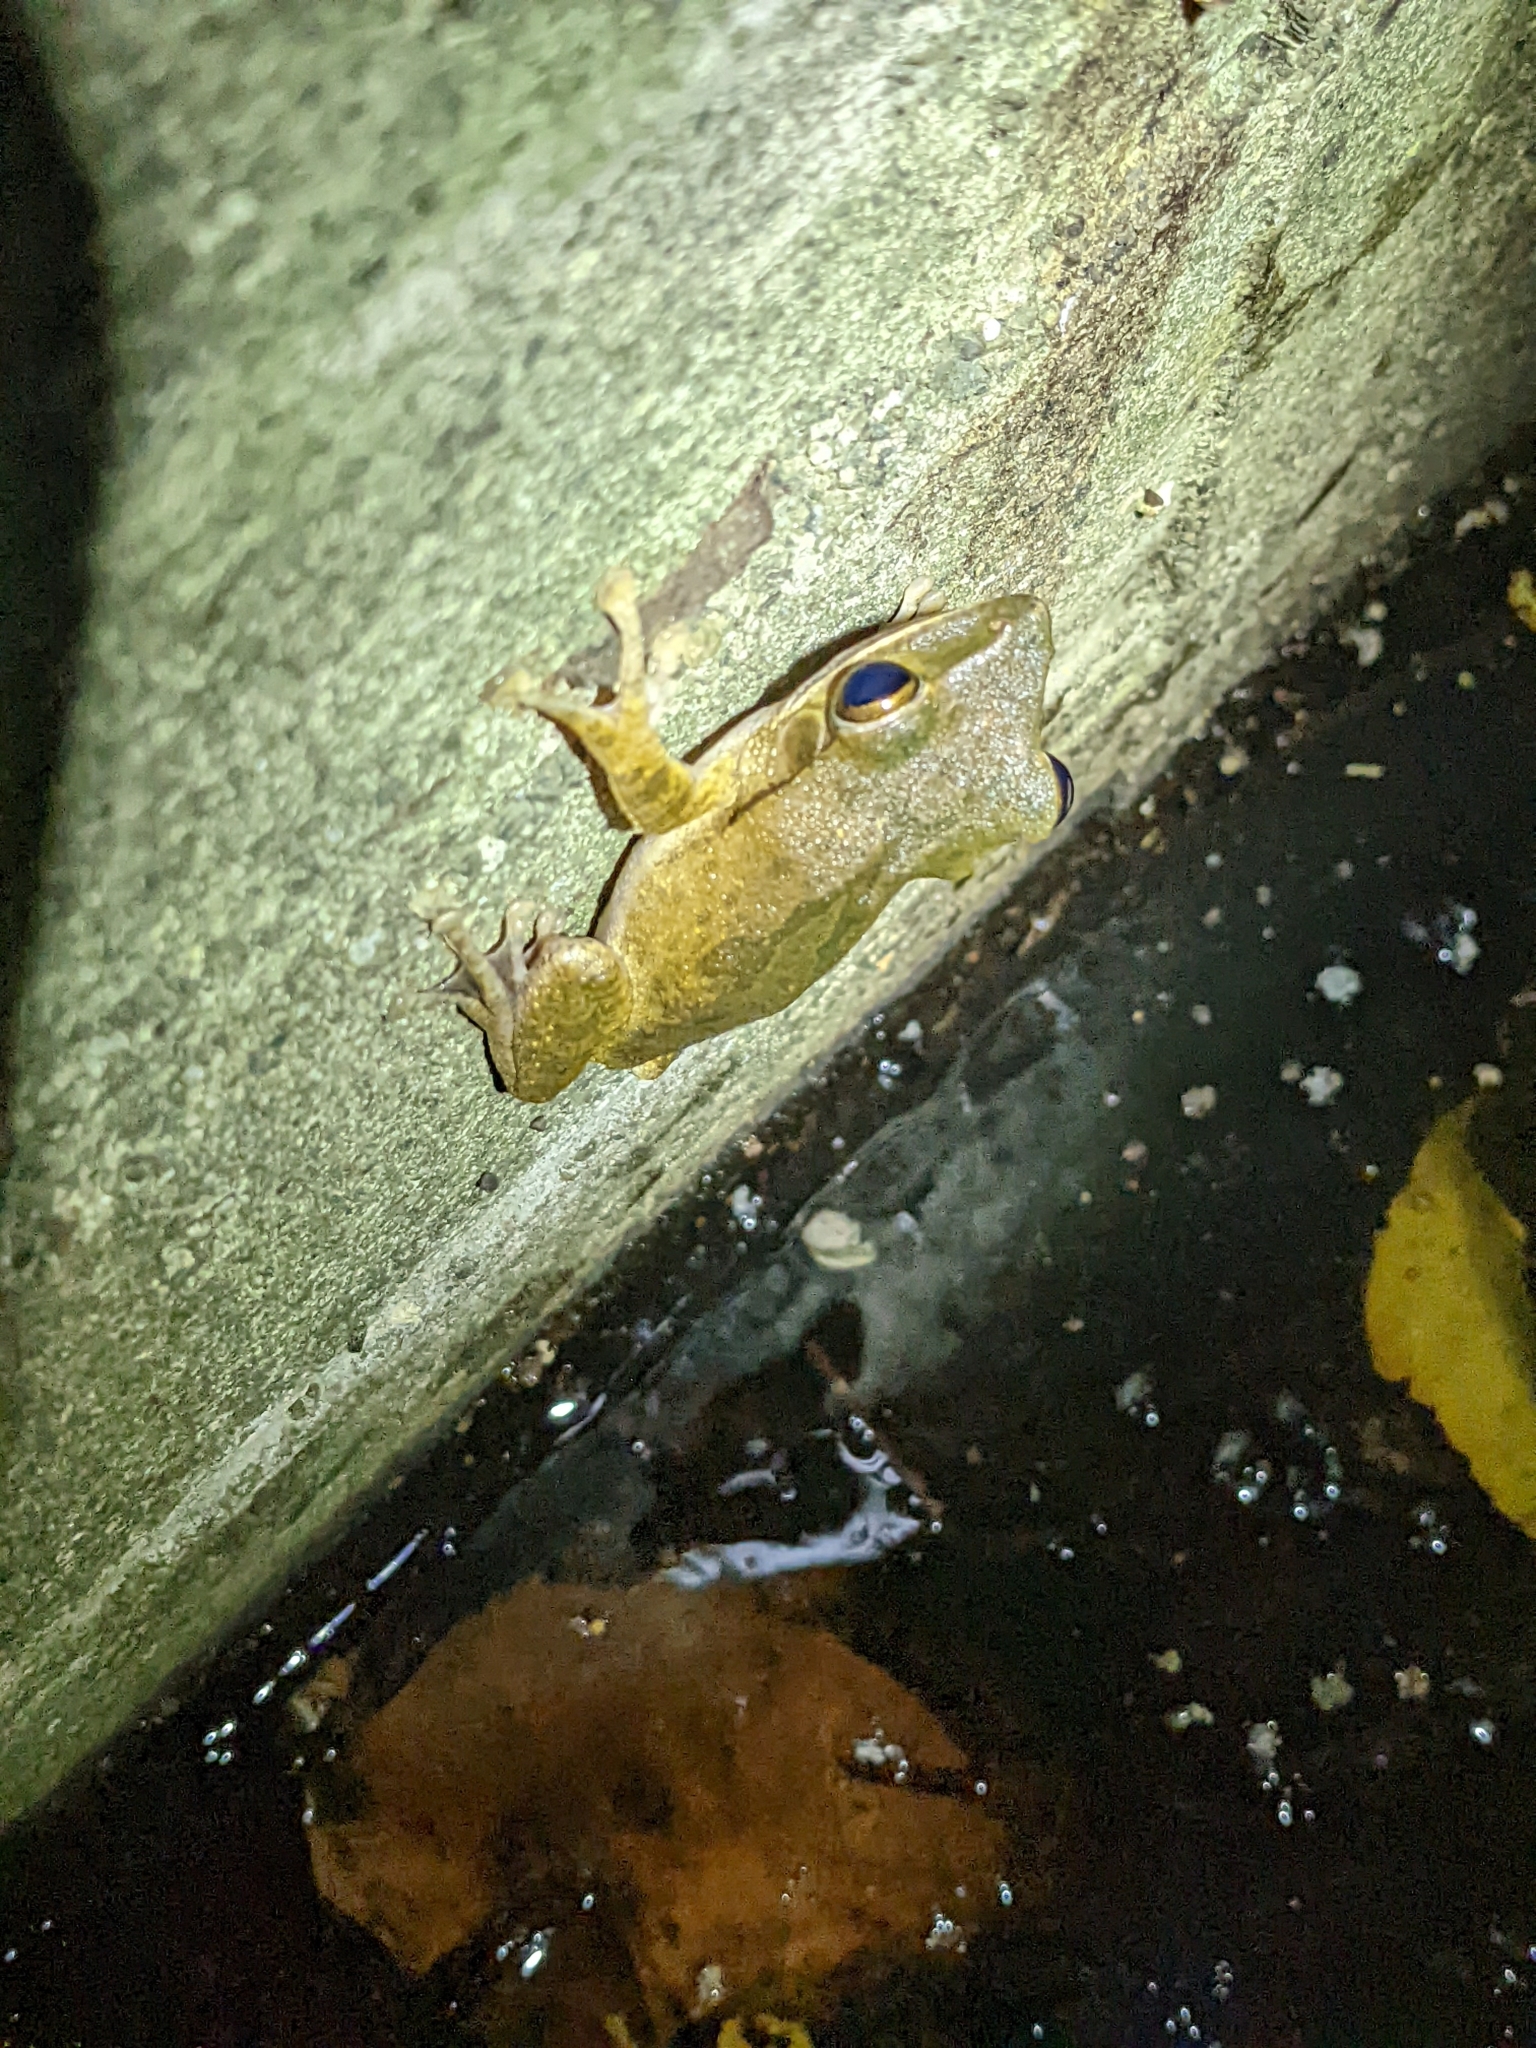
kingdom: Animalia
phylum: Chordata
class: Amphibia
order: Anura
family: Rhacophoridae
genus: Polypedates
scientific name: Polypedates megacephalus
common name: Hong kong whipping frog
